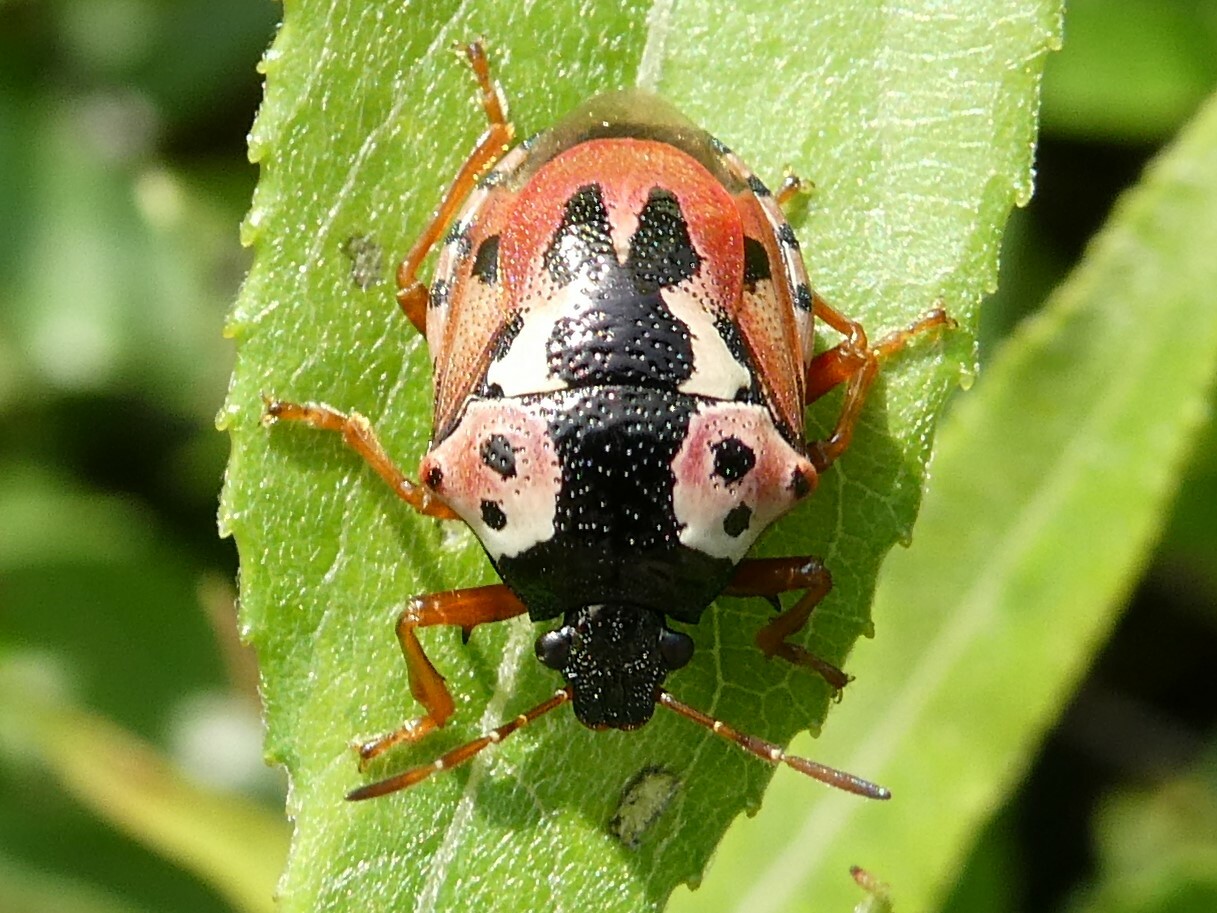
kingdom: Animalia
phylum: Arthropoda
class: Insecta
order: Hemiptera
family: Pentatomidae
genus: Stiretrus
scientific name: Stiretrus anchorago
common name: Anchor stink bug
